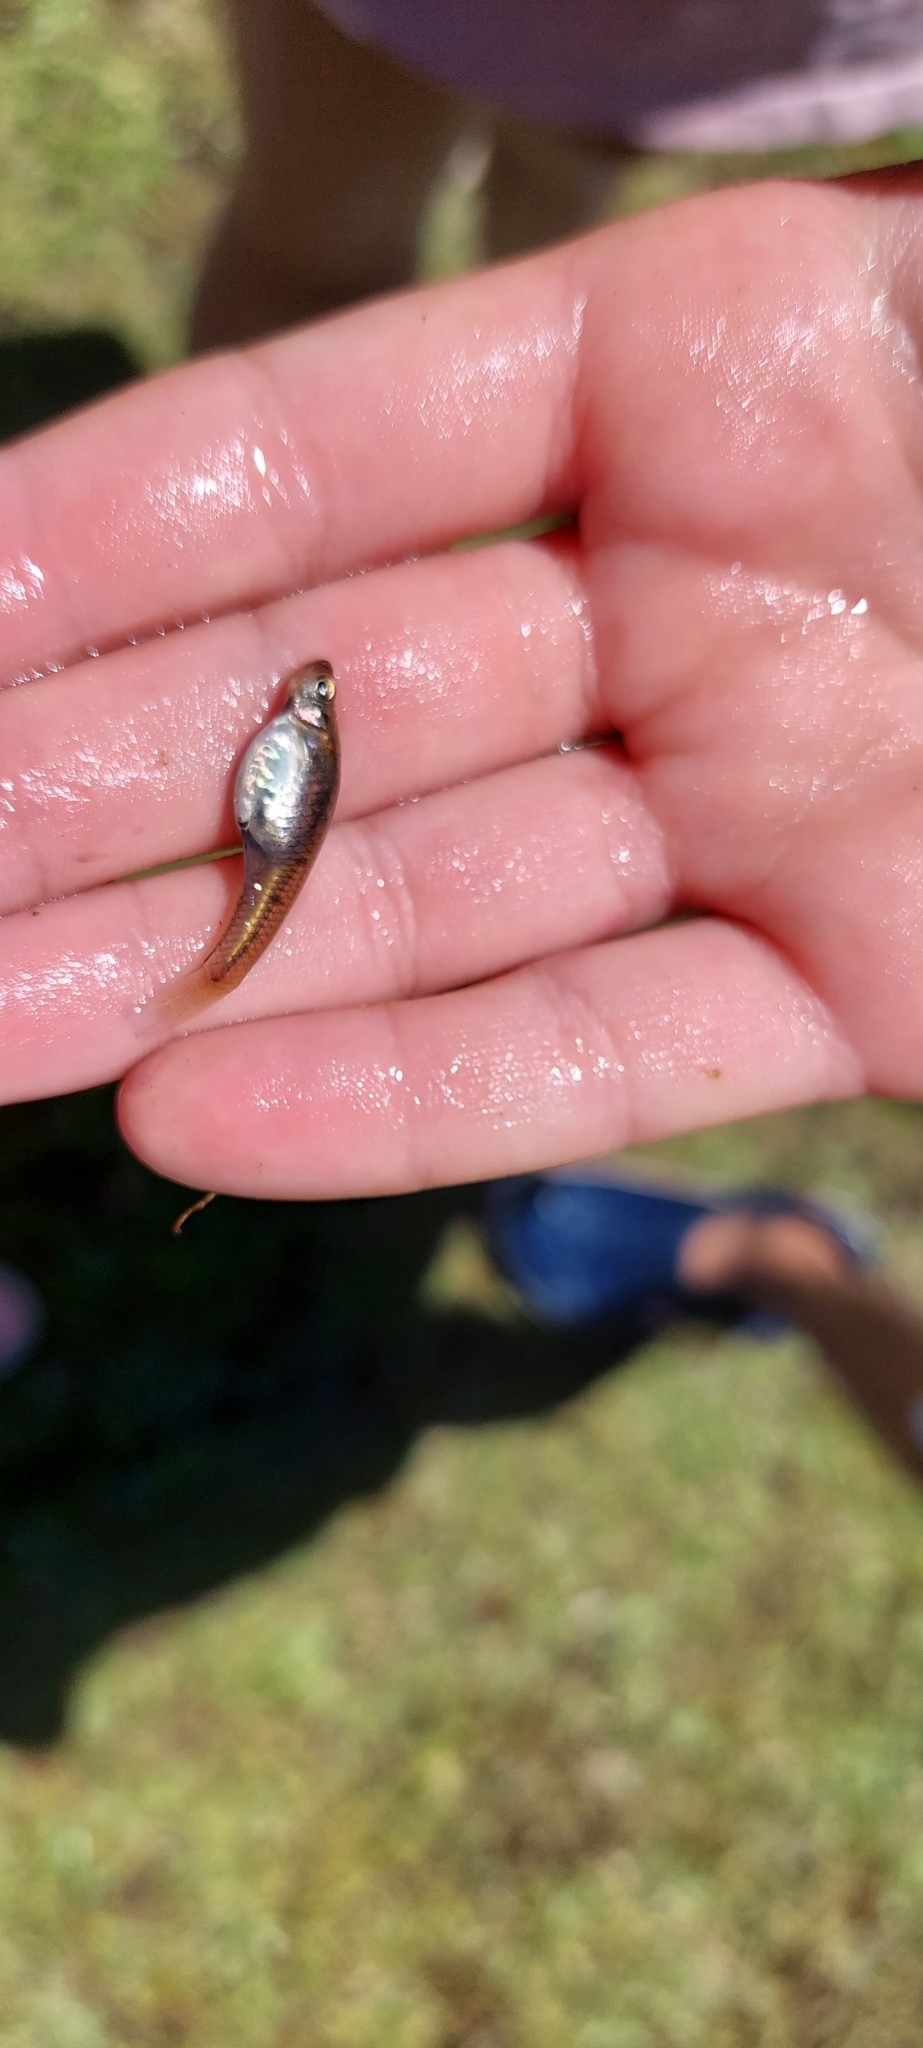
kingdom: Animalia
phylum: Chordata
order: Cyprinodontiformes
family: Poeciliidae
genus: Cnesterodon
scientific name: Cnesterodon decemmaculatus
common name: Ten spotted live-bearer
